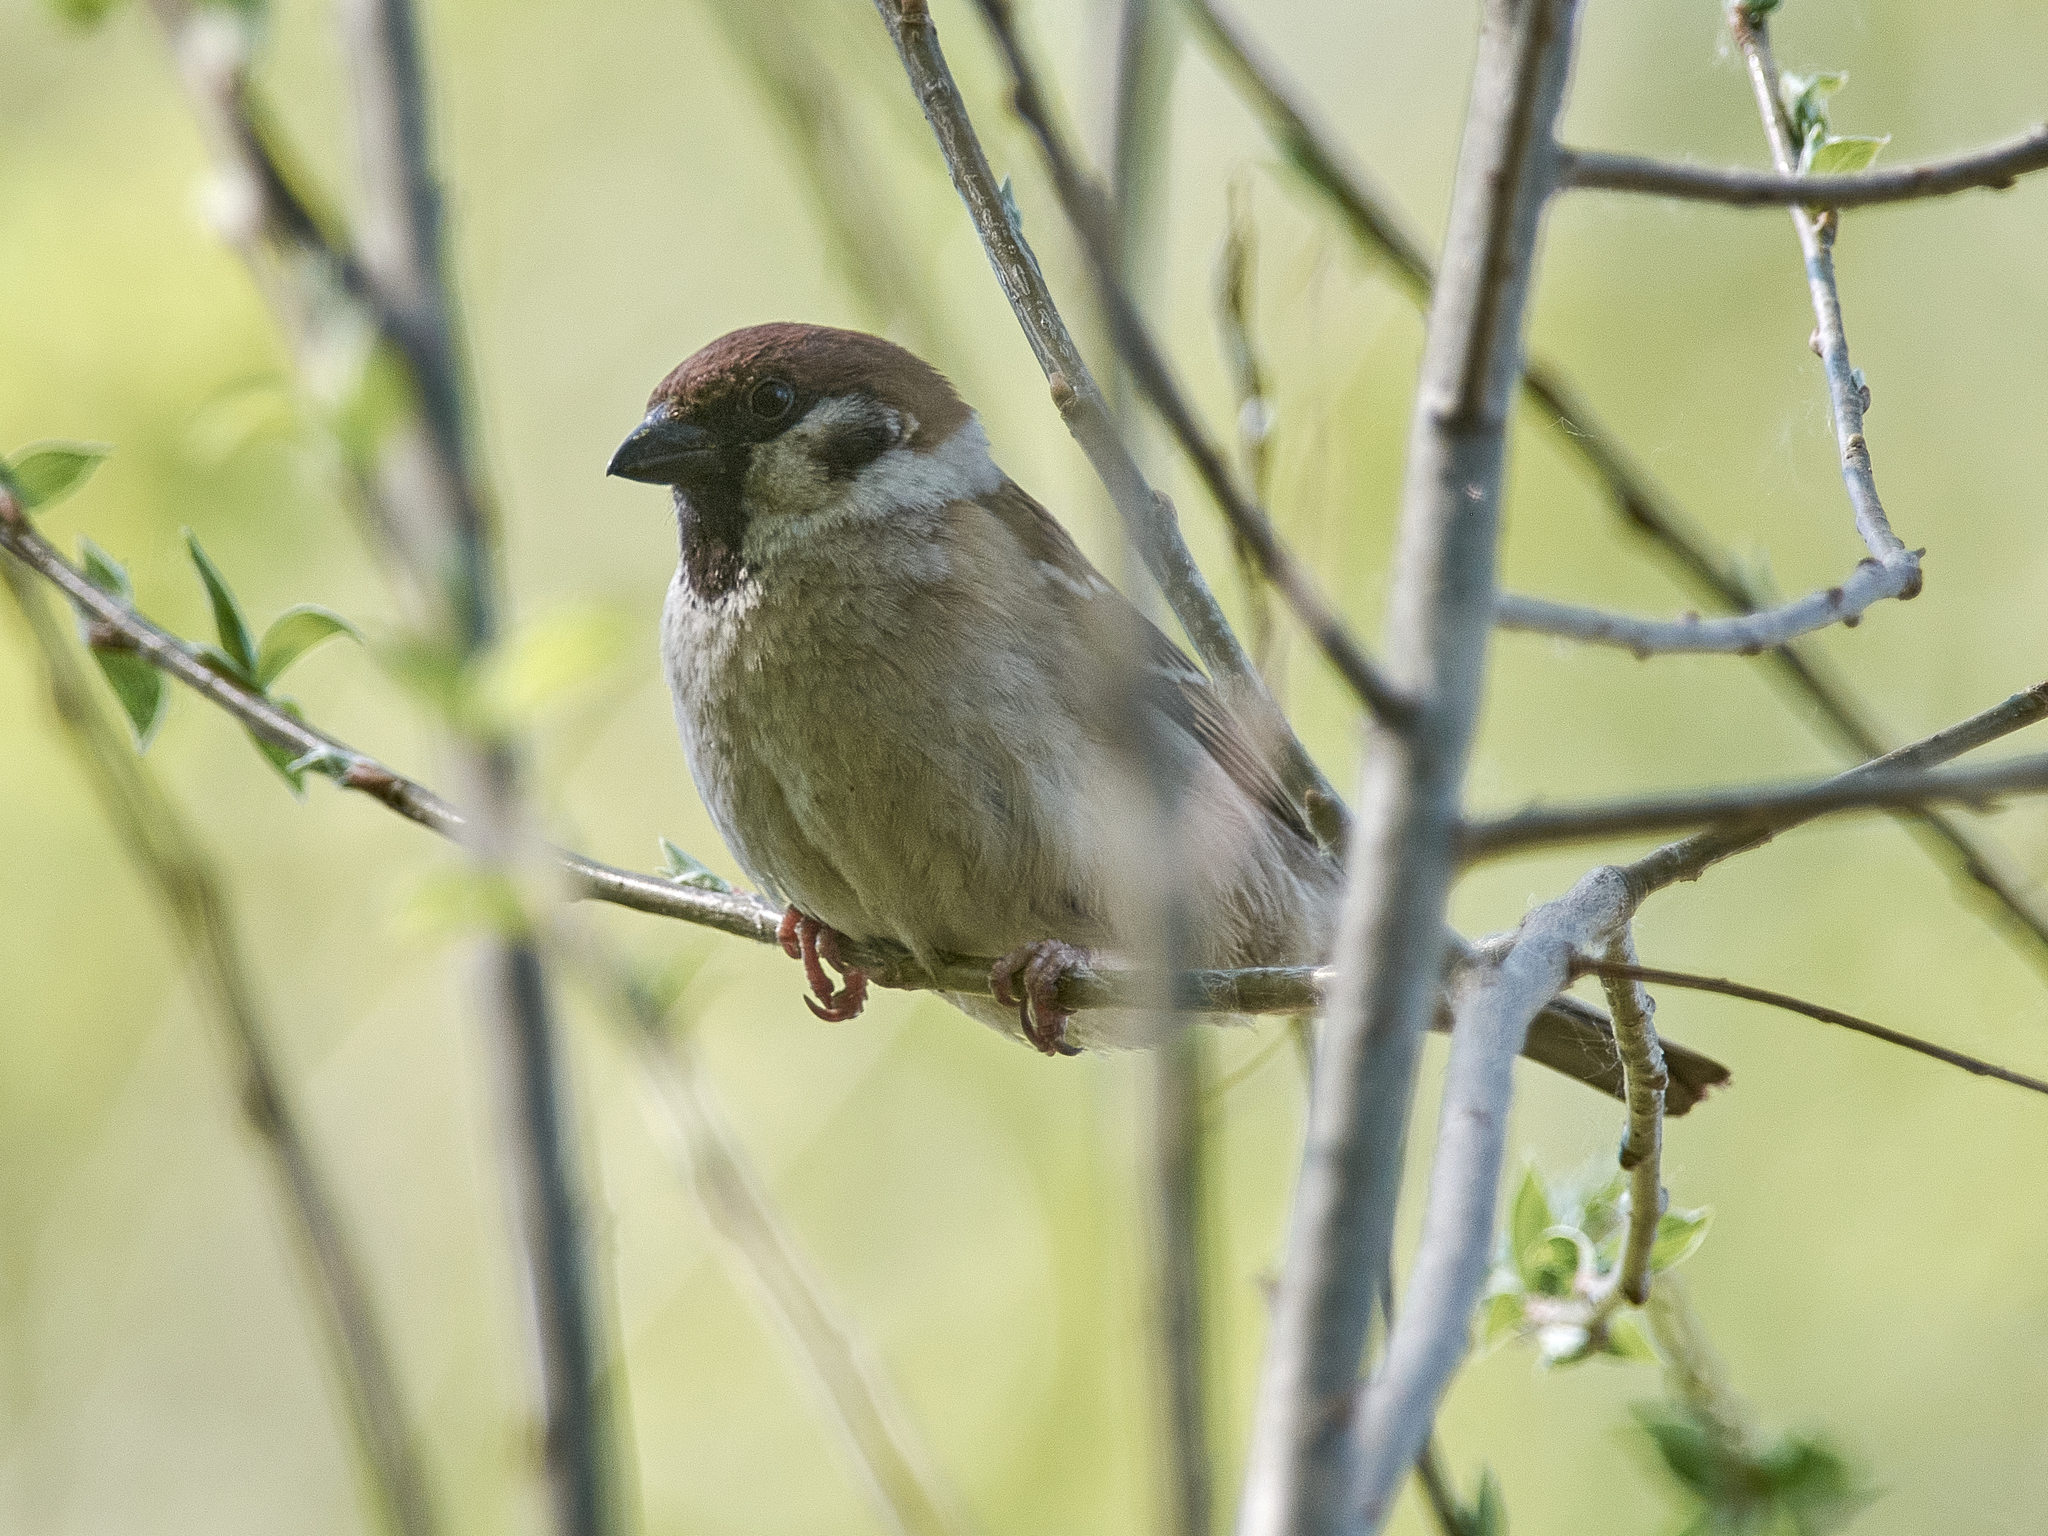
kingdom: Animalia
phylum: Chordata
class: Aves
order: Passeriformes
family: Passeridae
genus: Passer
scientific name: Passer montanus
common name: Eurasian tree sparrow
